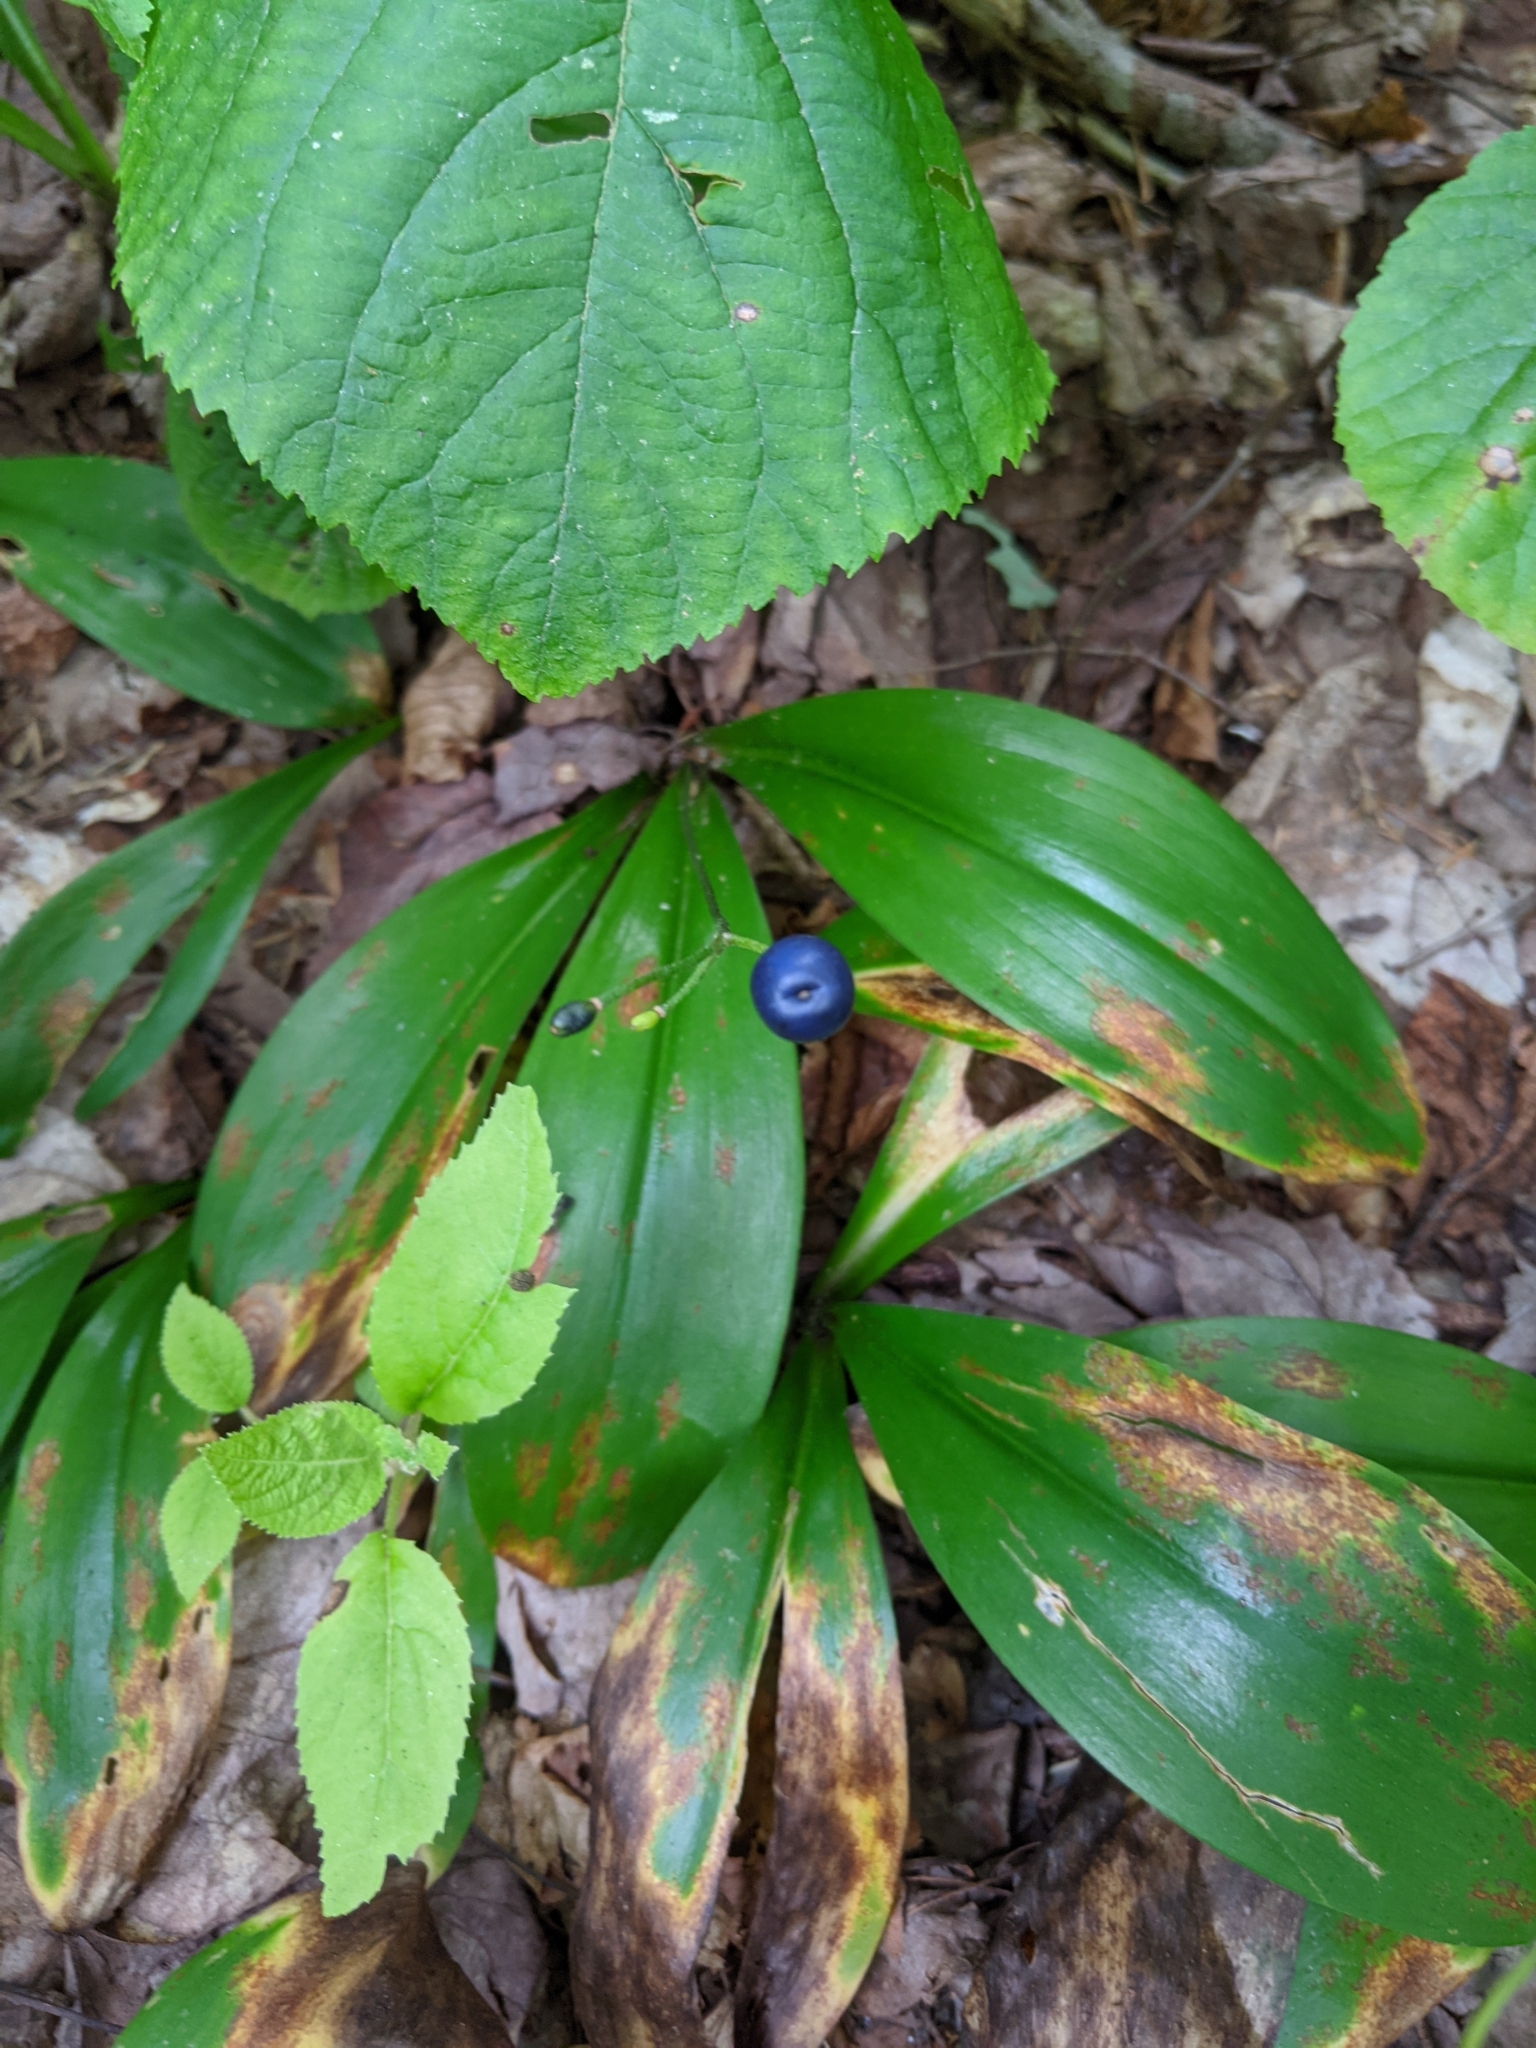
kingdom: Plantae
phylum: Tracheophyta
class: Liliopsida
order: Liliales
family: Liliaceae
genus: Clintonia
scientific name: Clintonia borealis
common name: Yellow clintonia
